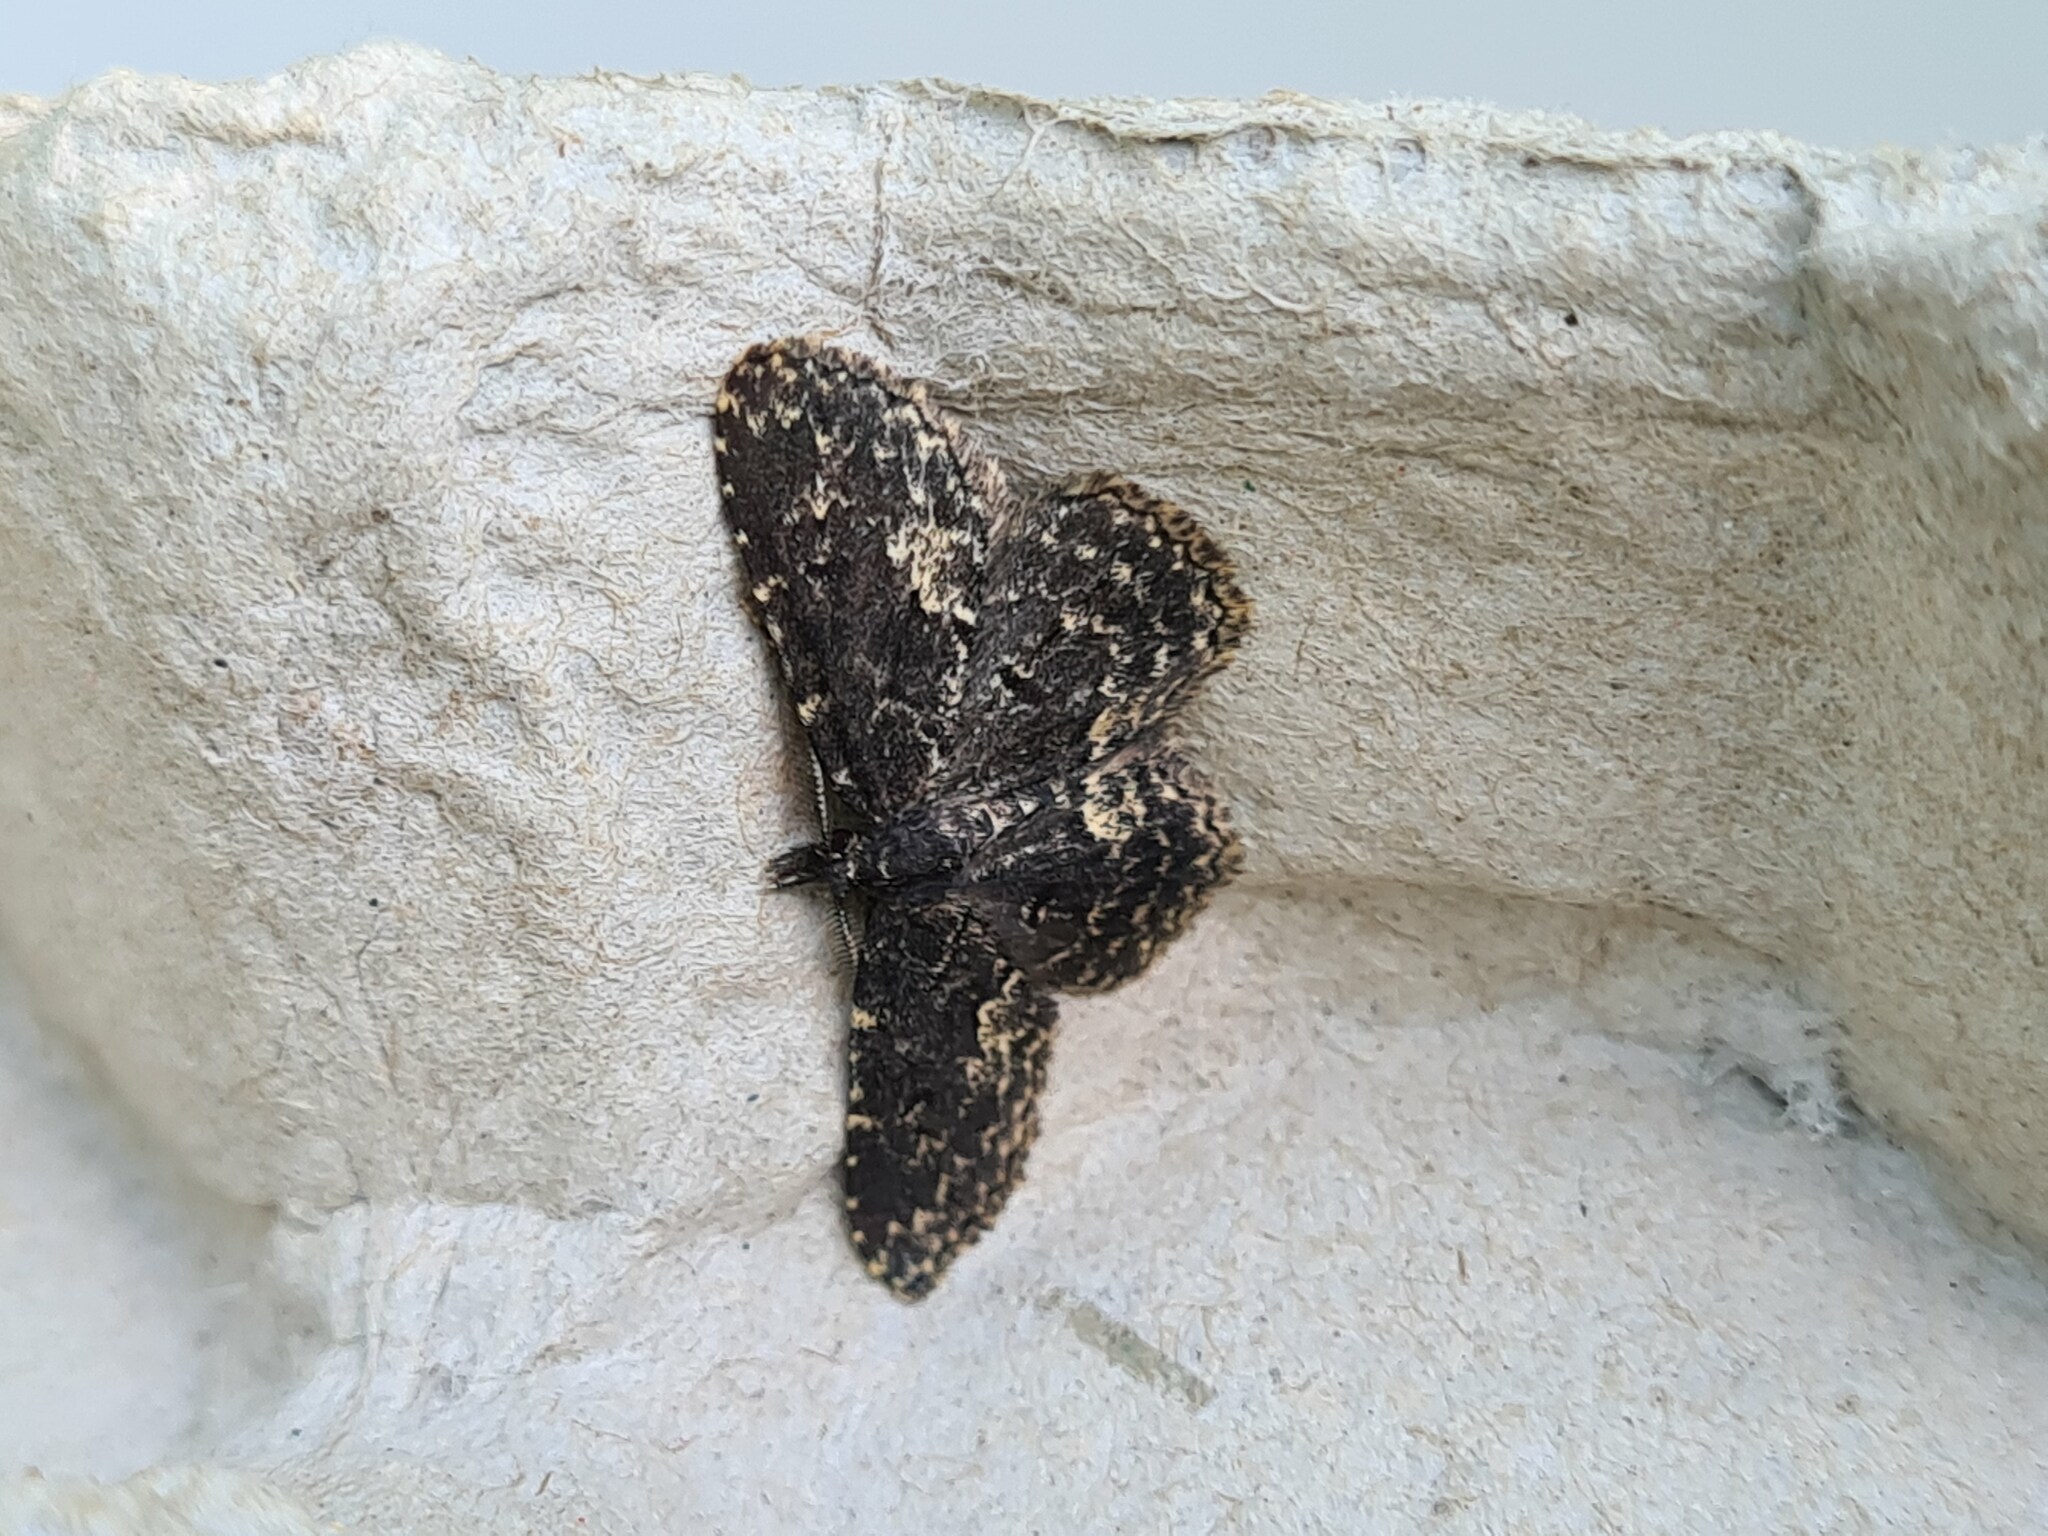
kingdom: Animalia
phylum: Arthropoda
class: Insecta
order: Lepidoptera
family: Erebidae
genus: Parascotia
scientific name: Parascotia fuliginaria
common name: Waved black
